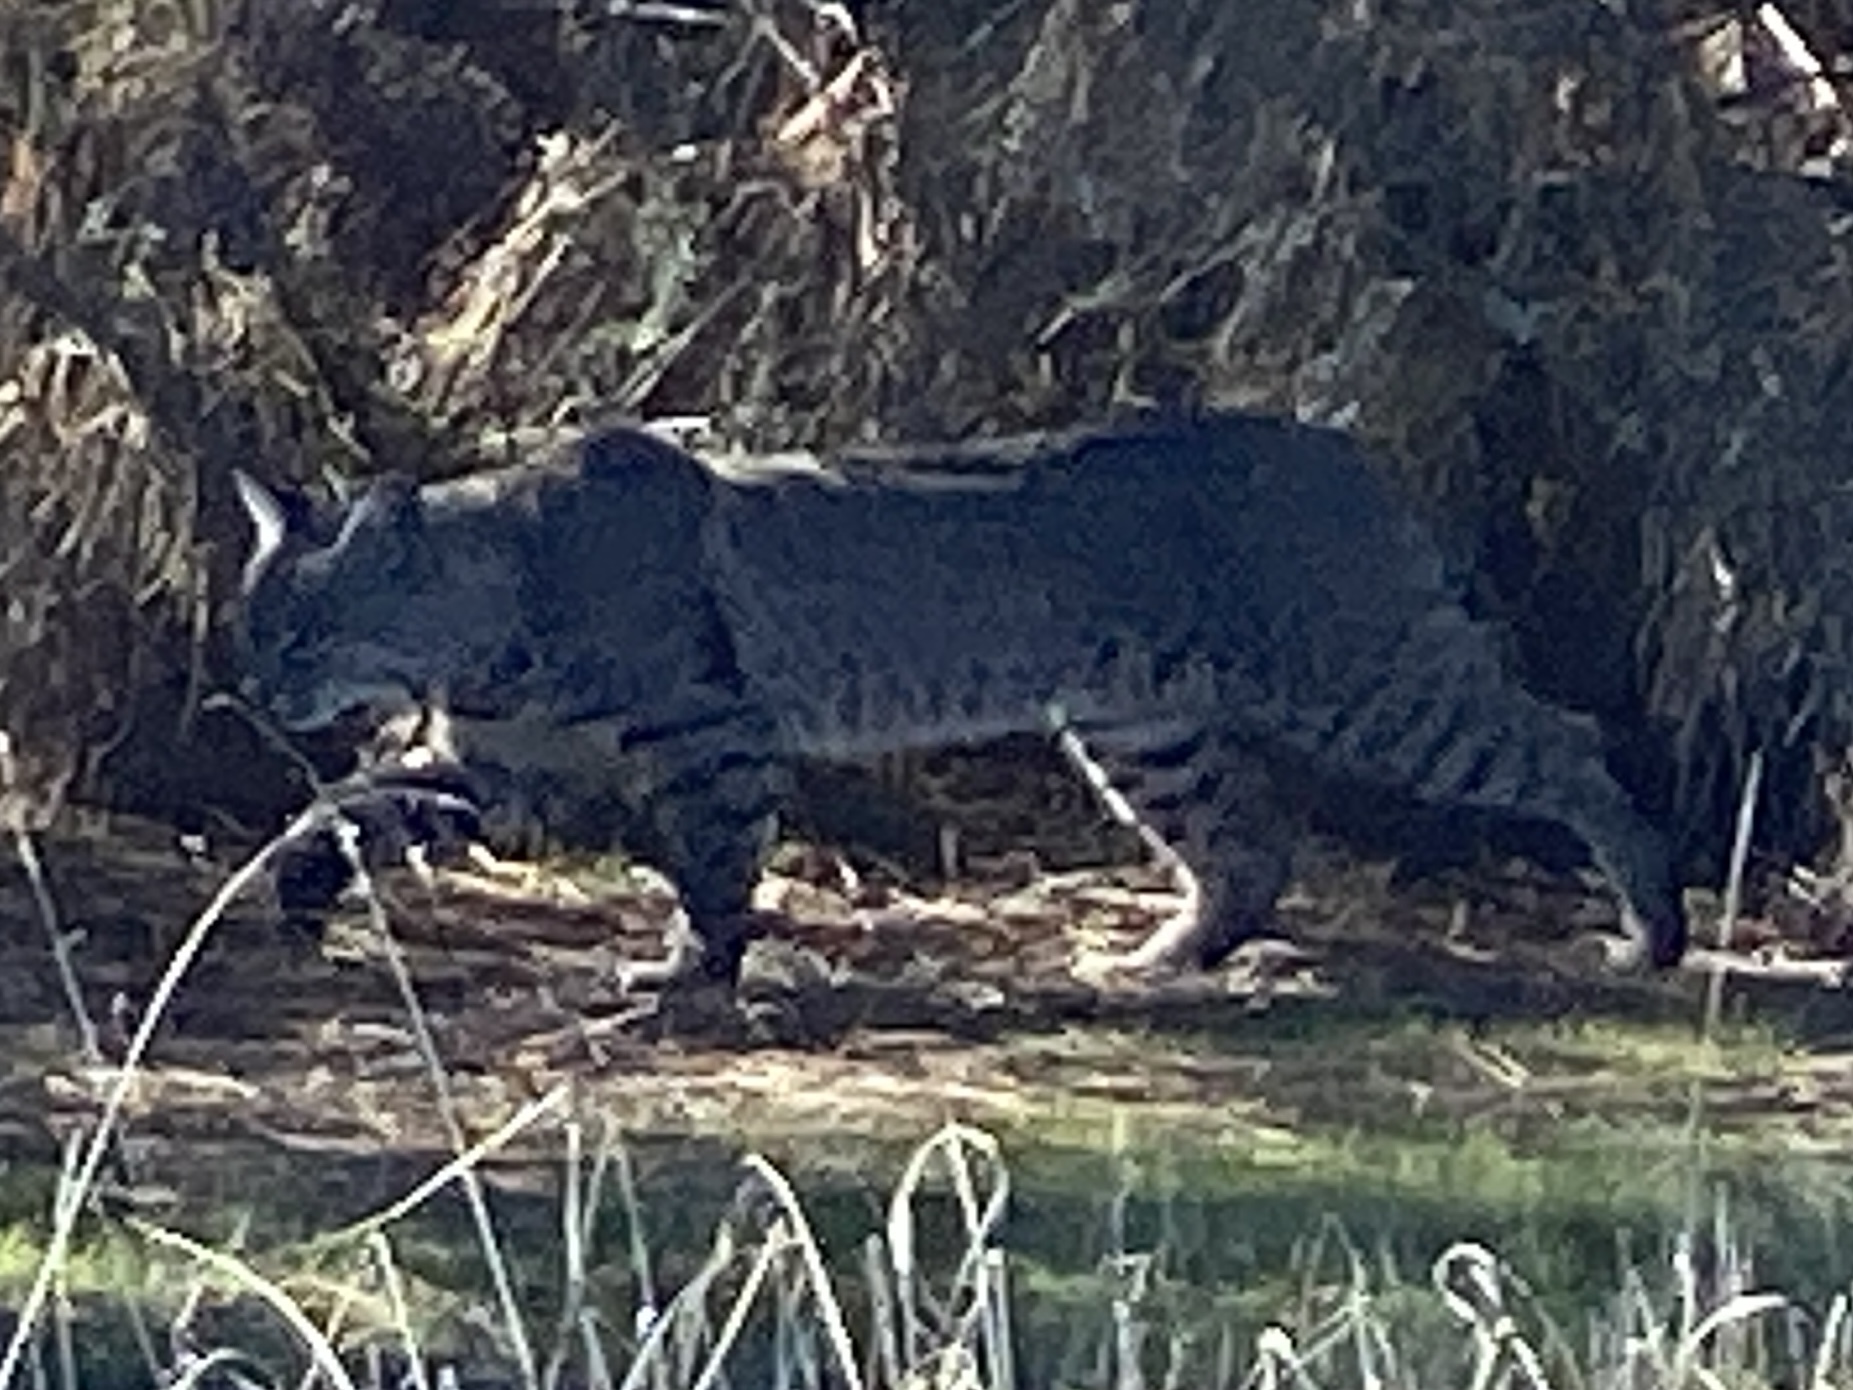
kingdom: Animalia
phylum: Chordata
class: Mammalia
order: Carnivora
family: Felidae
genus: Lynx
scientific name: Lynx rufus
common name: Bobcat
